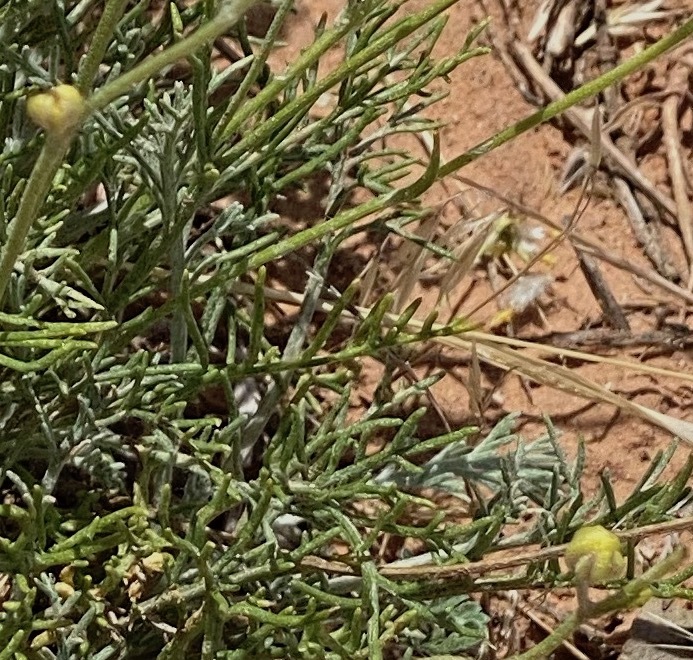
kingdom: Plantae
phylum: Tracheophyta
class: Magnoliopsida
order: Asterales
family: Asteraceae
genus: Hymenopappus
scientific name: Hymenopappus filifolius
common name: Columbia cutleaf
